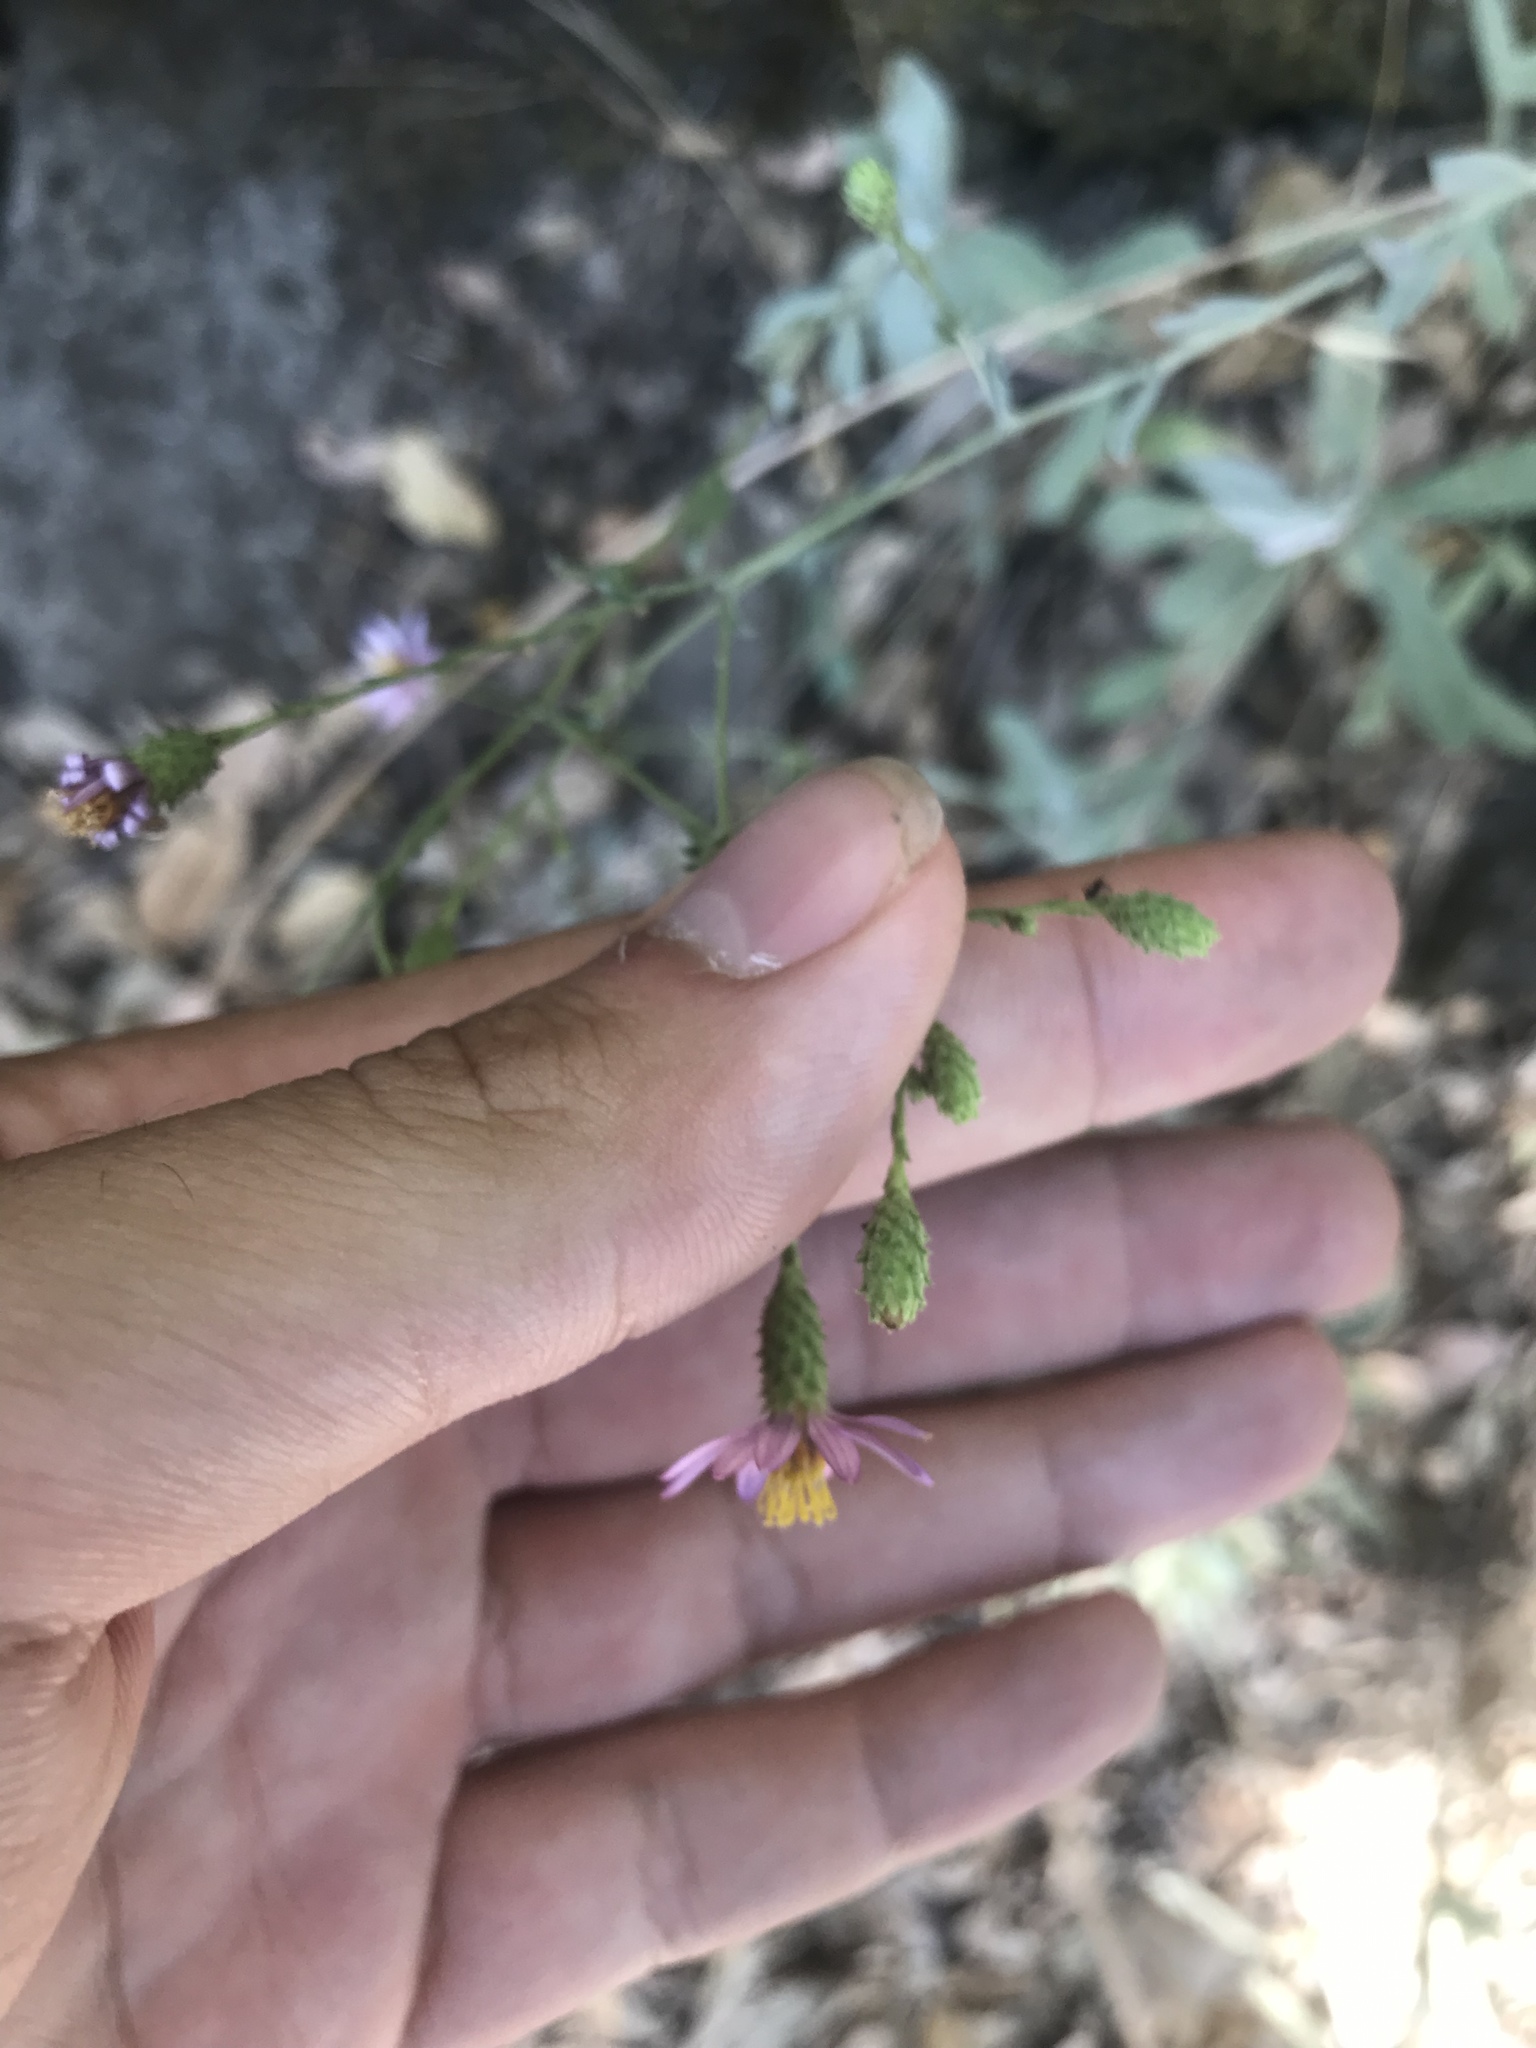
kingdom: Plantae
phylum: Tracheophyta
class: Magnoliopsida
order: Asterales
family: Asteraceae
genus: Corethrogyne
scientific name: Corethrogyne filaginifolia
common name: Sand-aster
